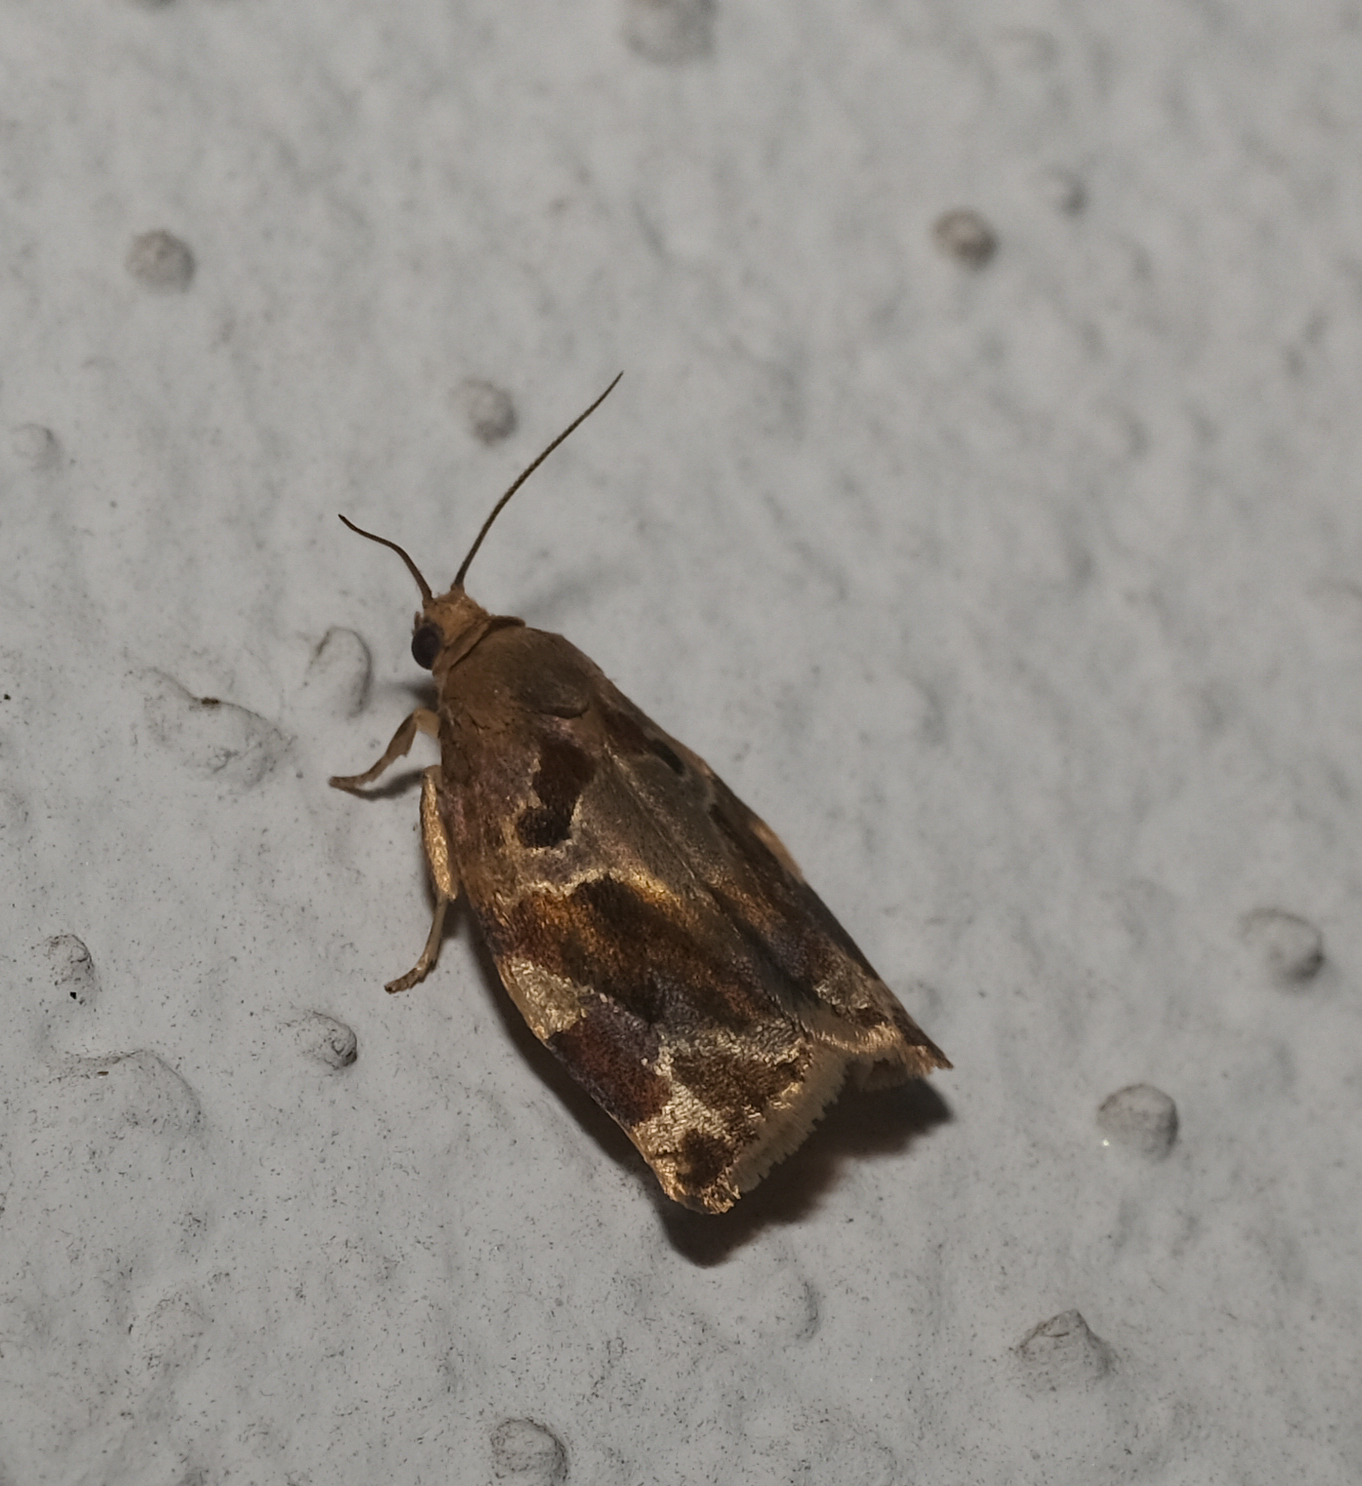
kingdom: Animalia
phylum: Arthropoda
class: Insecta
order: Lepidoptera
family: Tortricidae
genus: Archips
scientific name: Archips xylosteana
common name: Variegated golden tortrix
